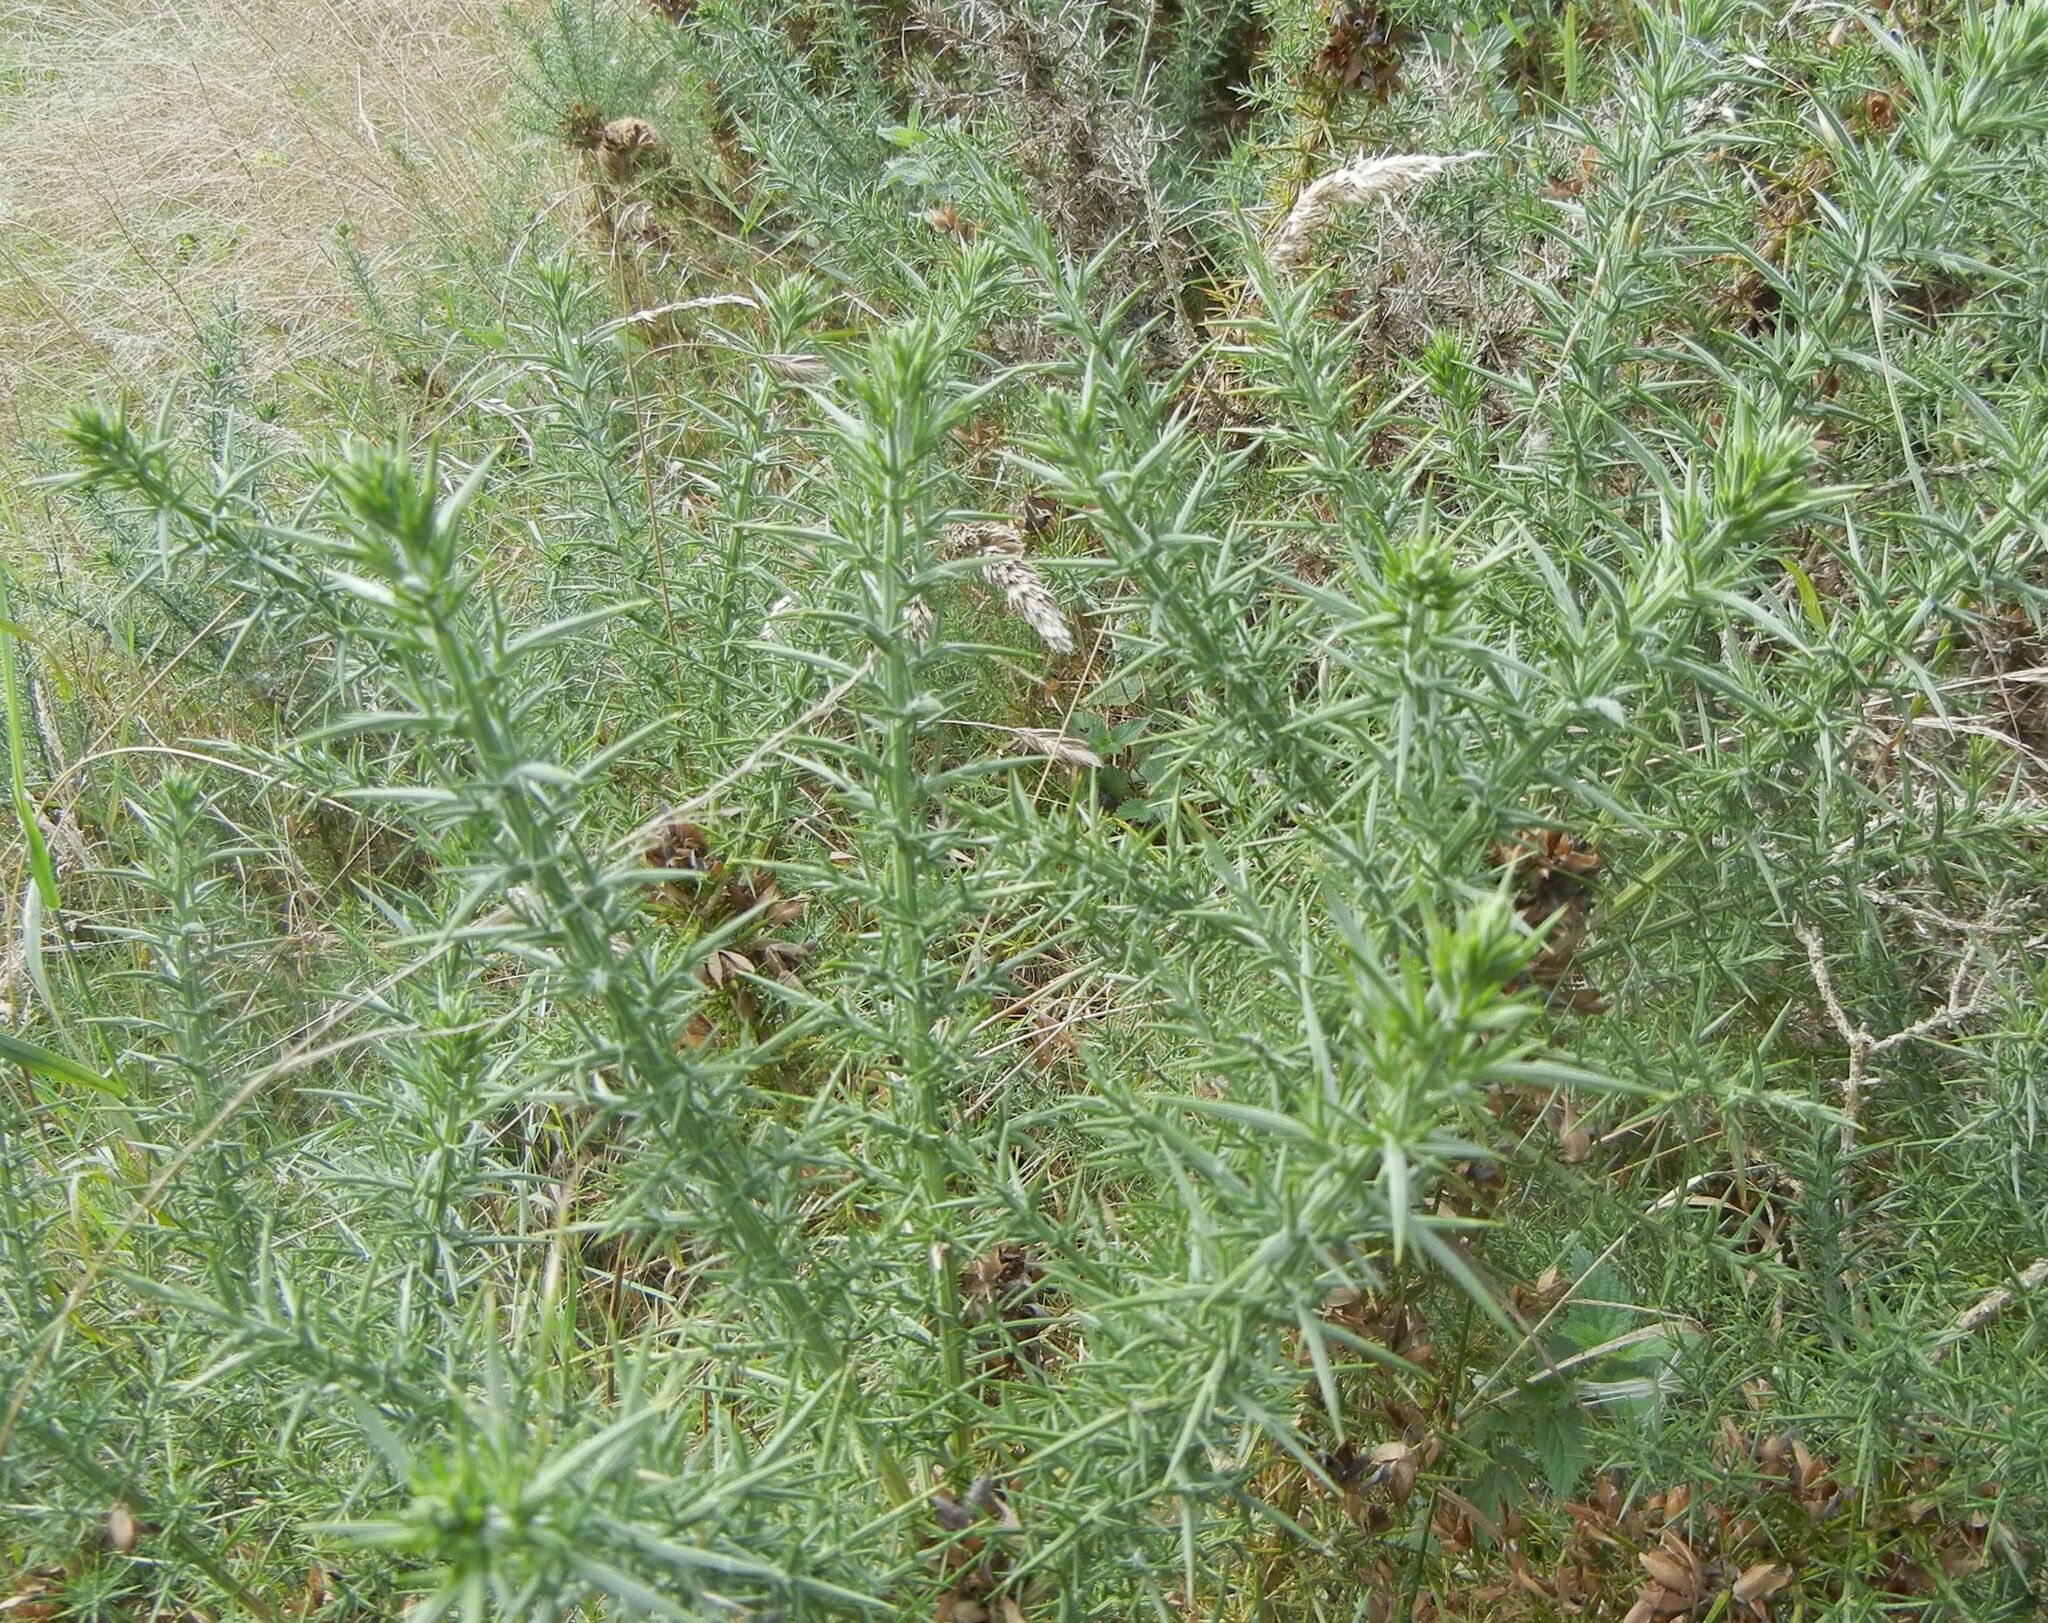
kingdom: Plantae
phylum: Tracheophyta
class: Magnoliopsida
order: Fabales
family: Fabaceae
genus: Ulex
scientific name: Ulex europaeus
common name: Common gorse
